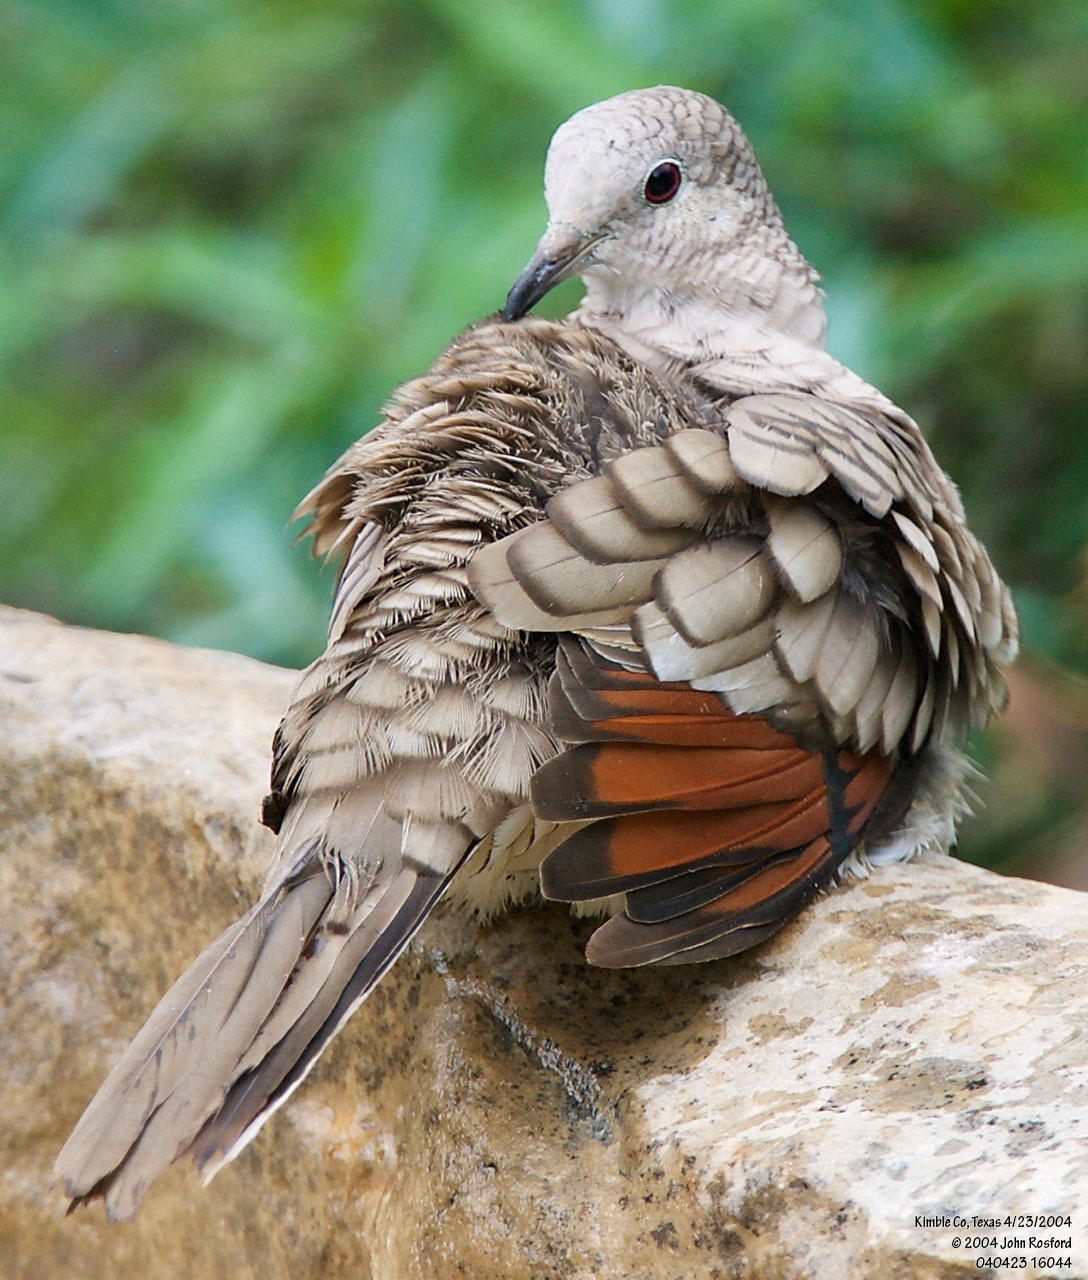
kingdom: Animalia
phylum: Chordata
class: Aves
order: Columbiformes
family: Columbidae
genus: Columbina
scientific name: Columbina inca
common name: Inca dove
